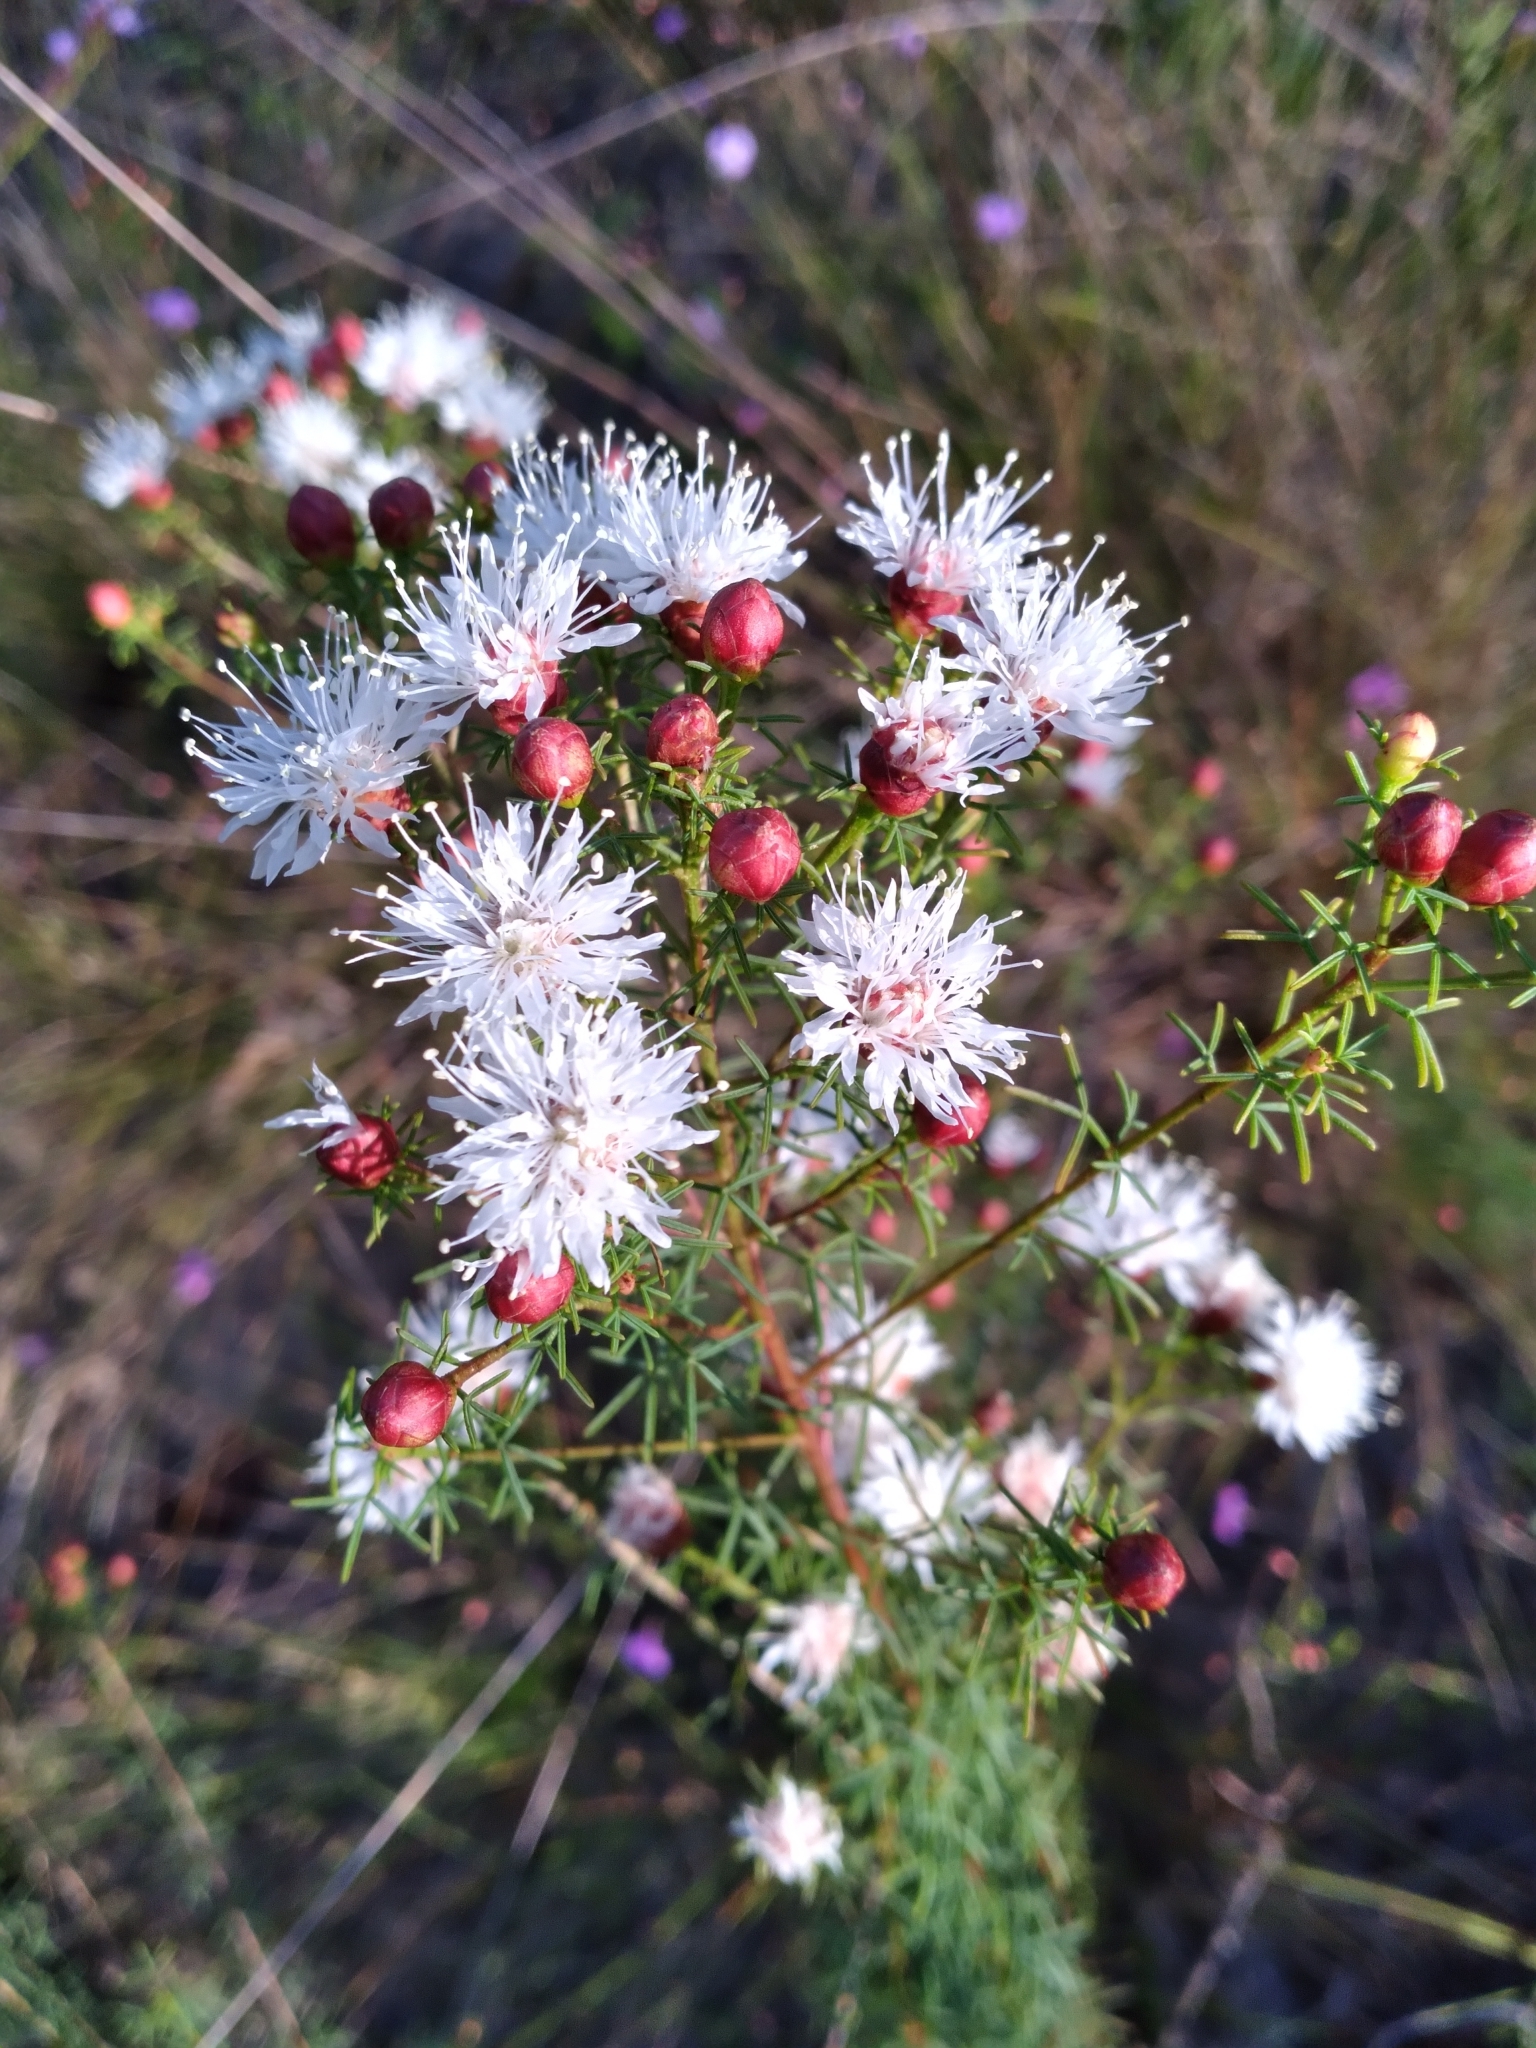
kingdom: Plantae
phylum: Tracheophyta
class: Magnoliopsida
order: Fabales
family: Fabaceae
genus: Dalea
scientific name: Dalea pinnata
